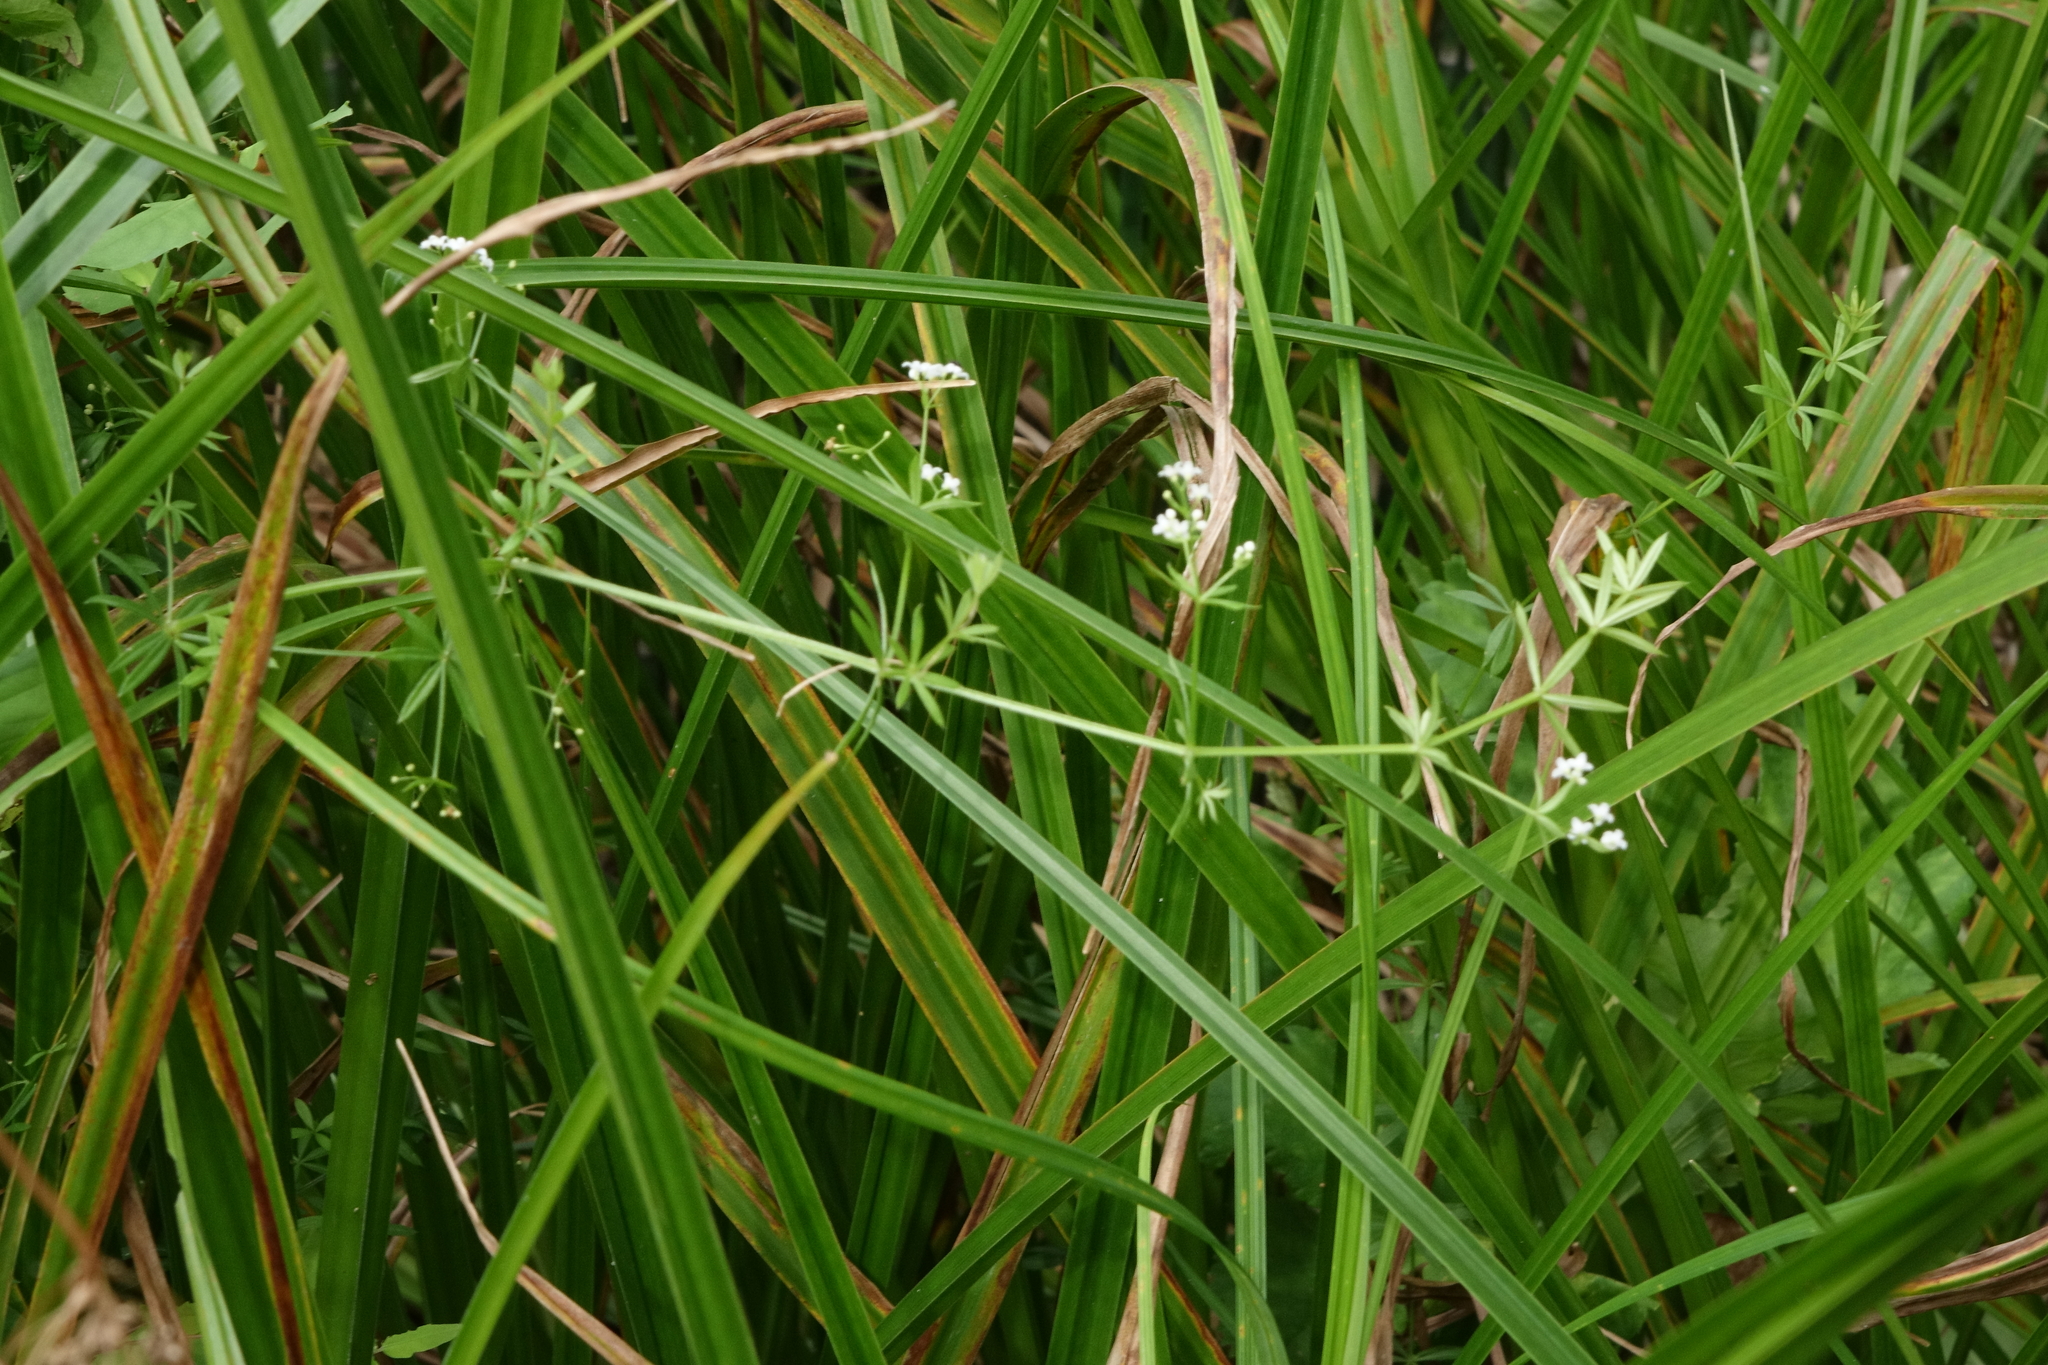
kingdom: Plantae
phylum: Tracheophyta
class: Magnoliopsida
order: Gentianales
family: Rubiaceae
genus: Galium
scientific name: Galium uliginosum
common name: Fen bedstraw
